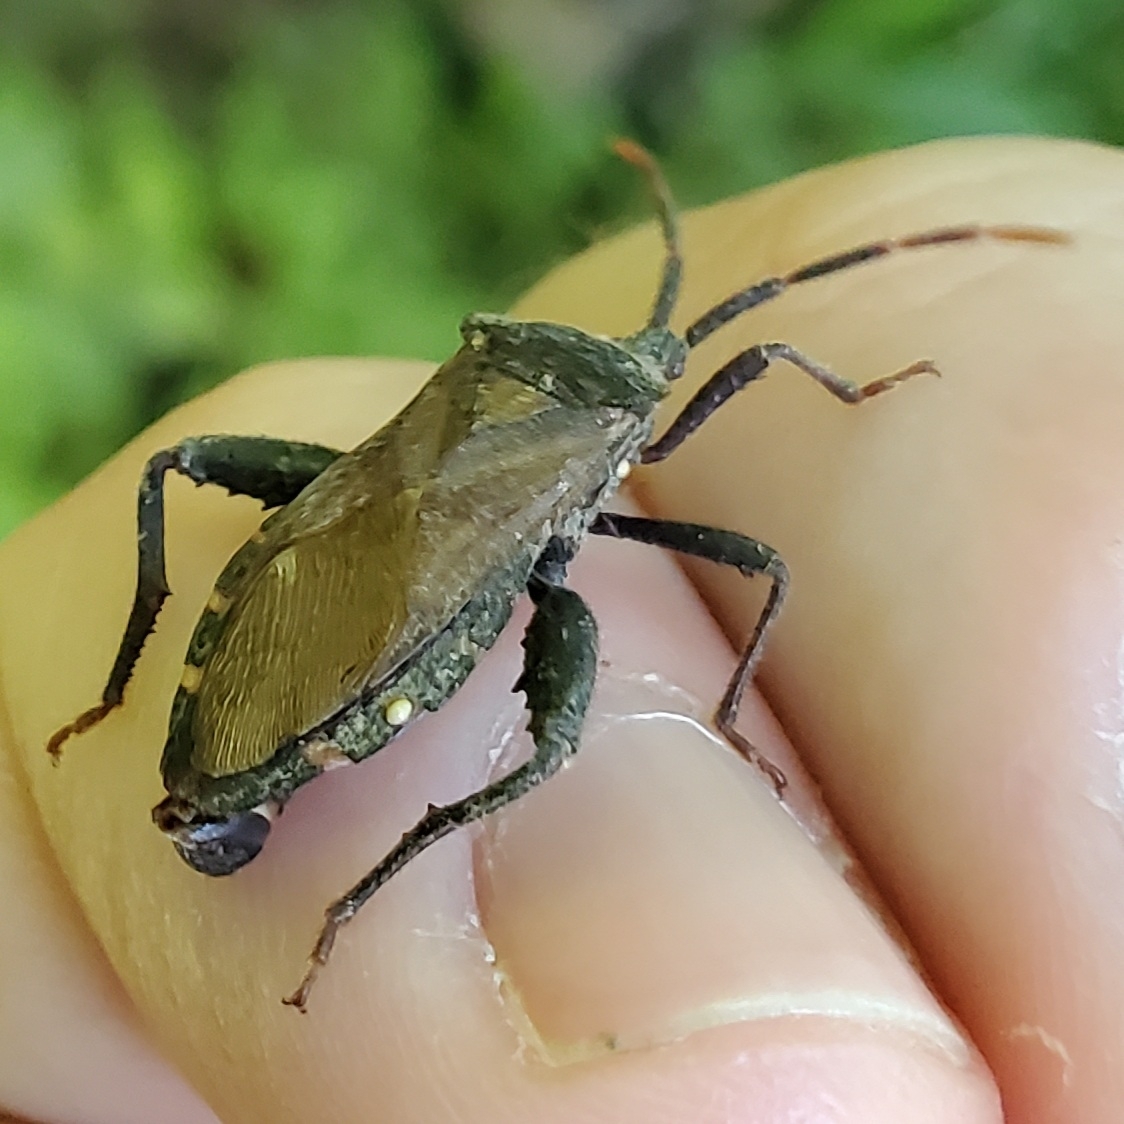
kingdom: Animalia
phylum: Arthropoda
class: Insecta
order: Hemiptera
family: Coreidae
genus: Piezogaster
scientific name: Piezogaster calcarator
